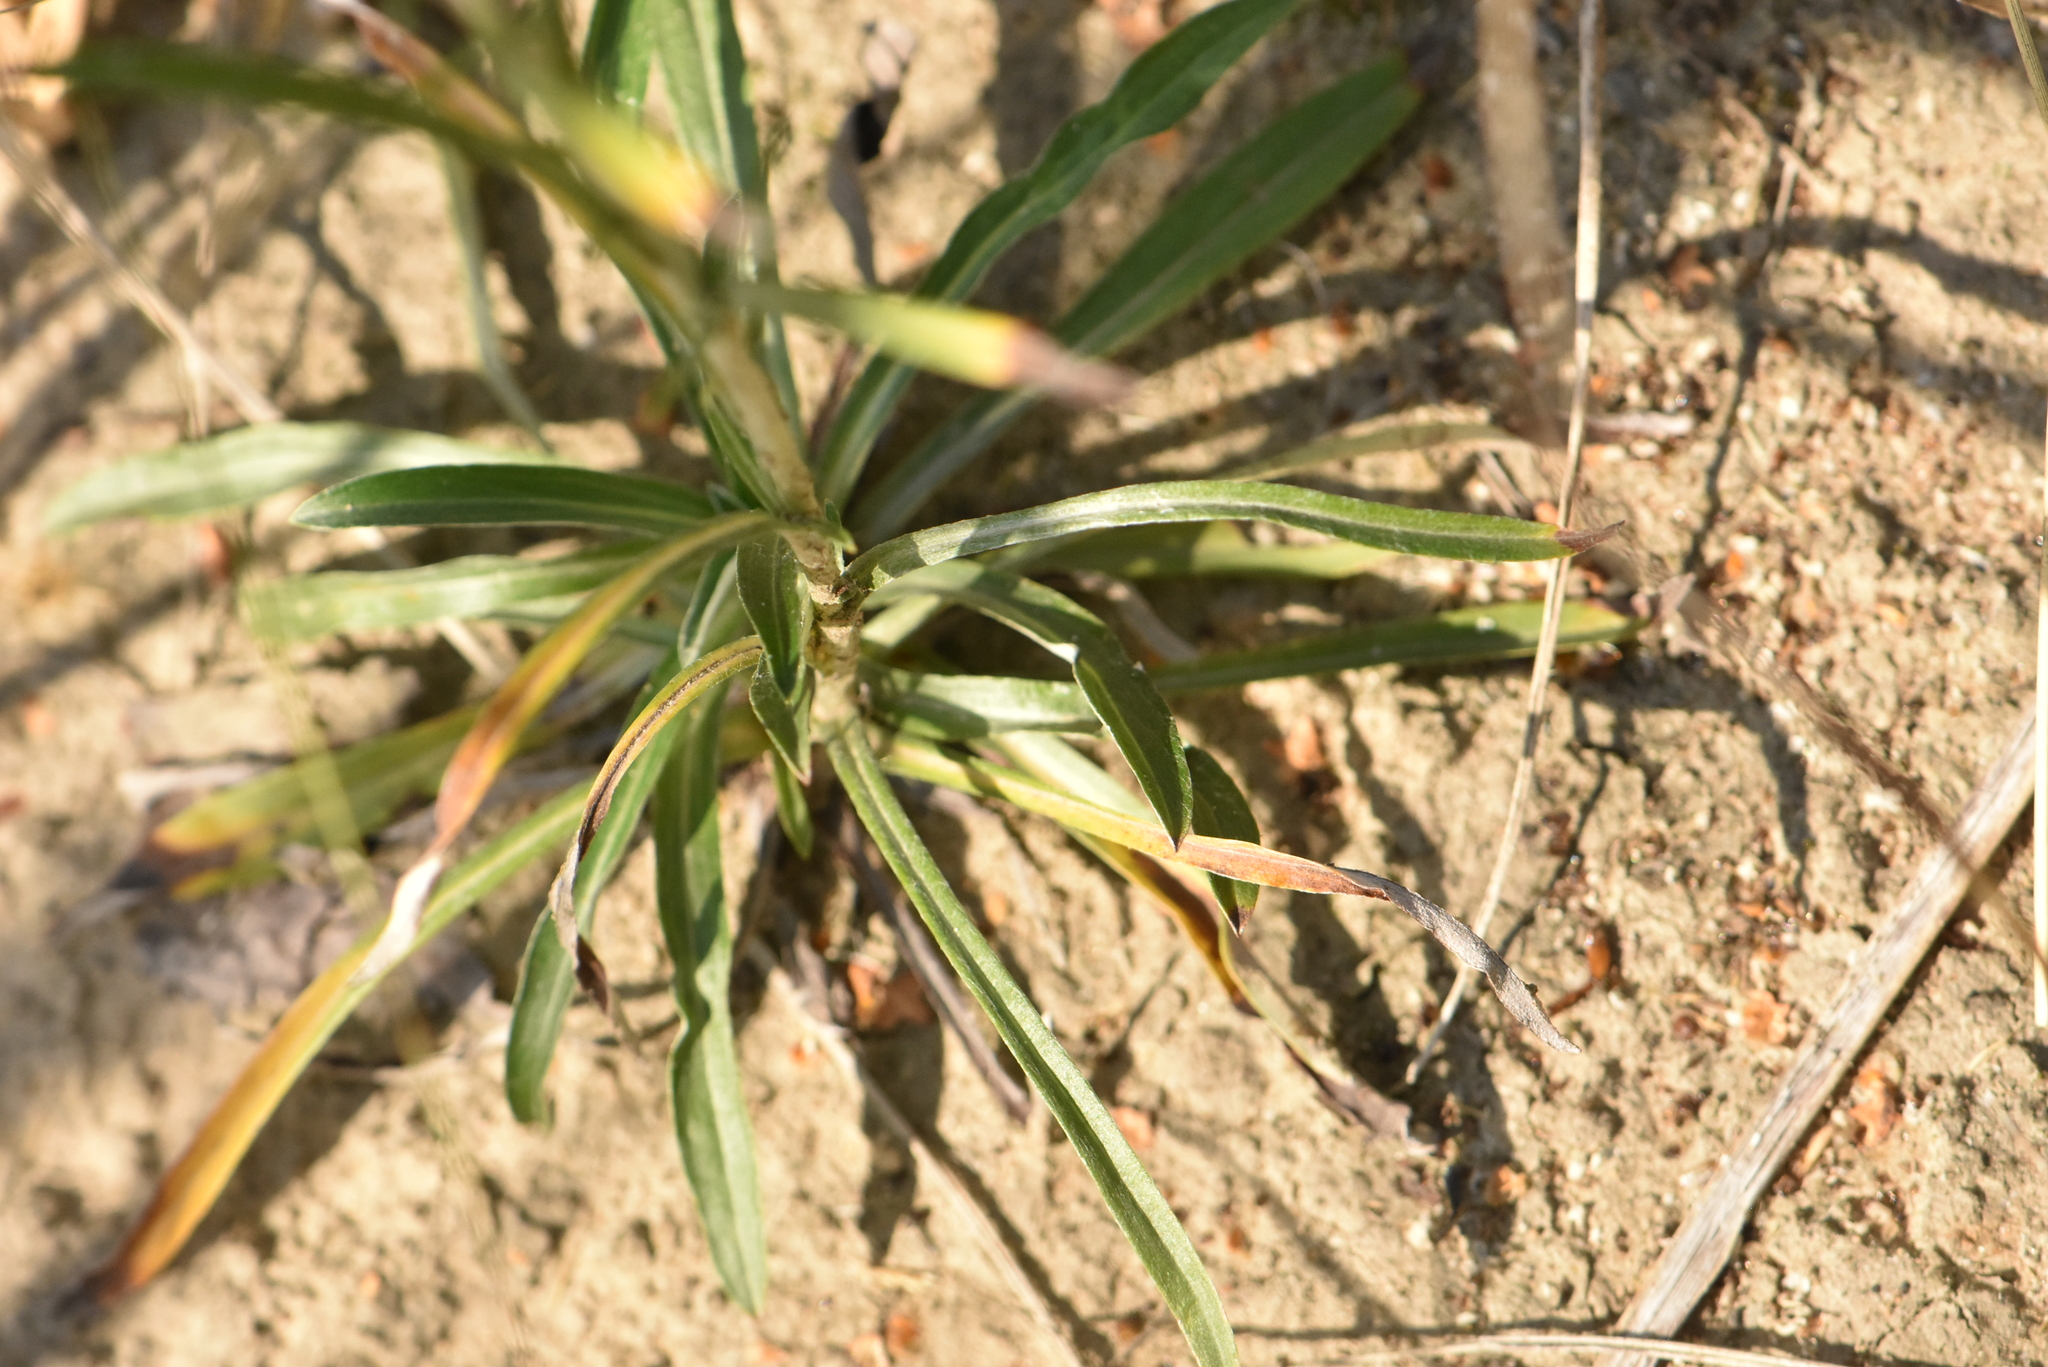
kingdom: Plantae
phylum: Tracheophyta
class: Magnoliopsida
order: Asterales
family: Asteraceae
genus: Omalotheca
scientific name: Omalotheca sylvatica
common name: Heath cudweed
